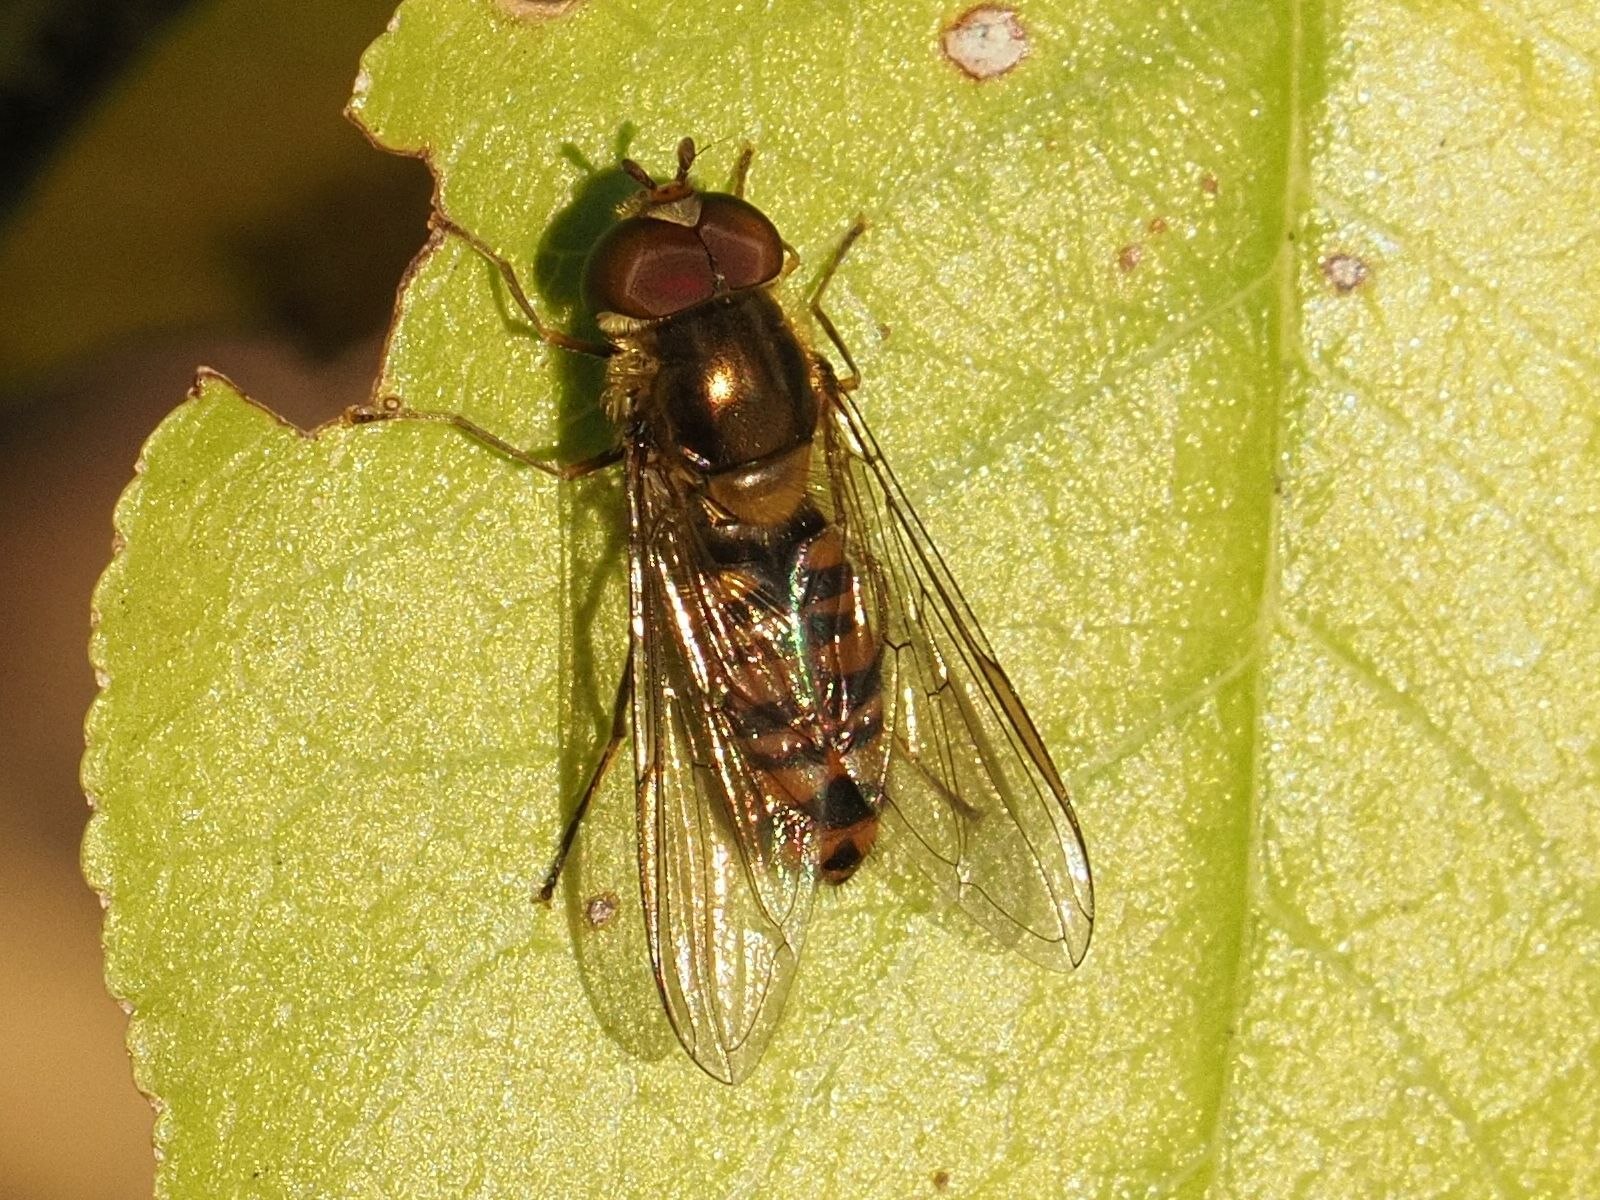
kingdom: Animalia
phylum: Arthropoda
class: Insecta
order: Diptera
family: Syrphidae
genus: Episyrphus
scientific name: Episyrphus balteatus
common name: Marmalade hoverfly
